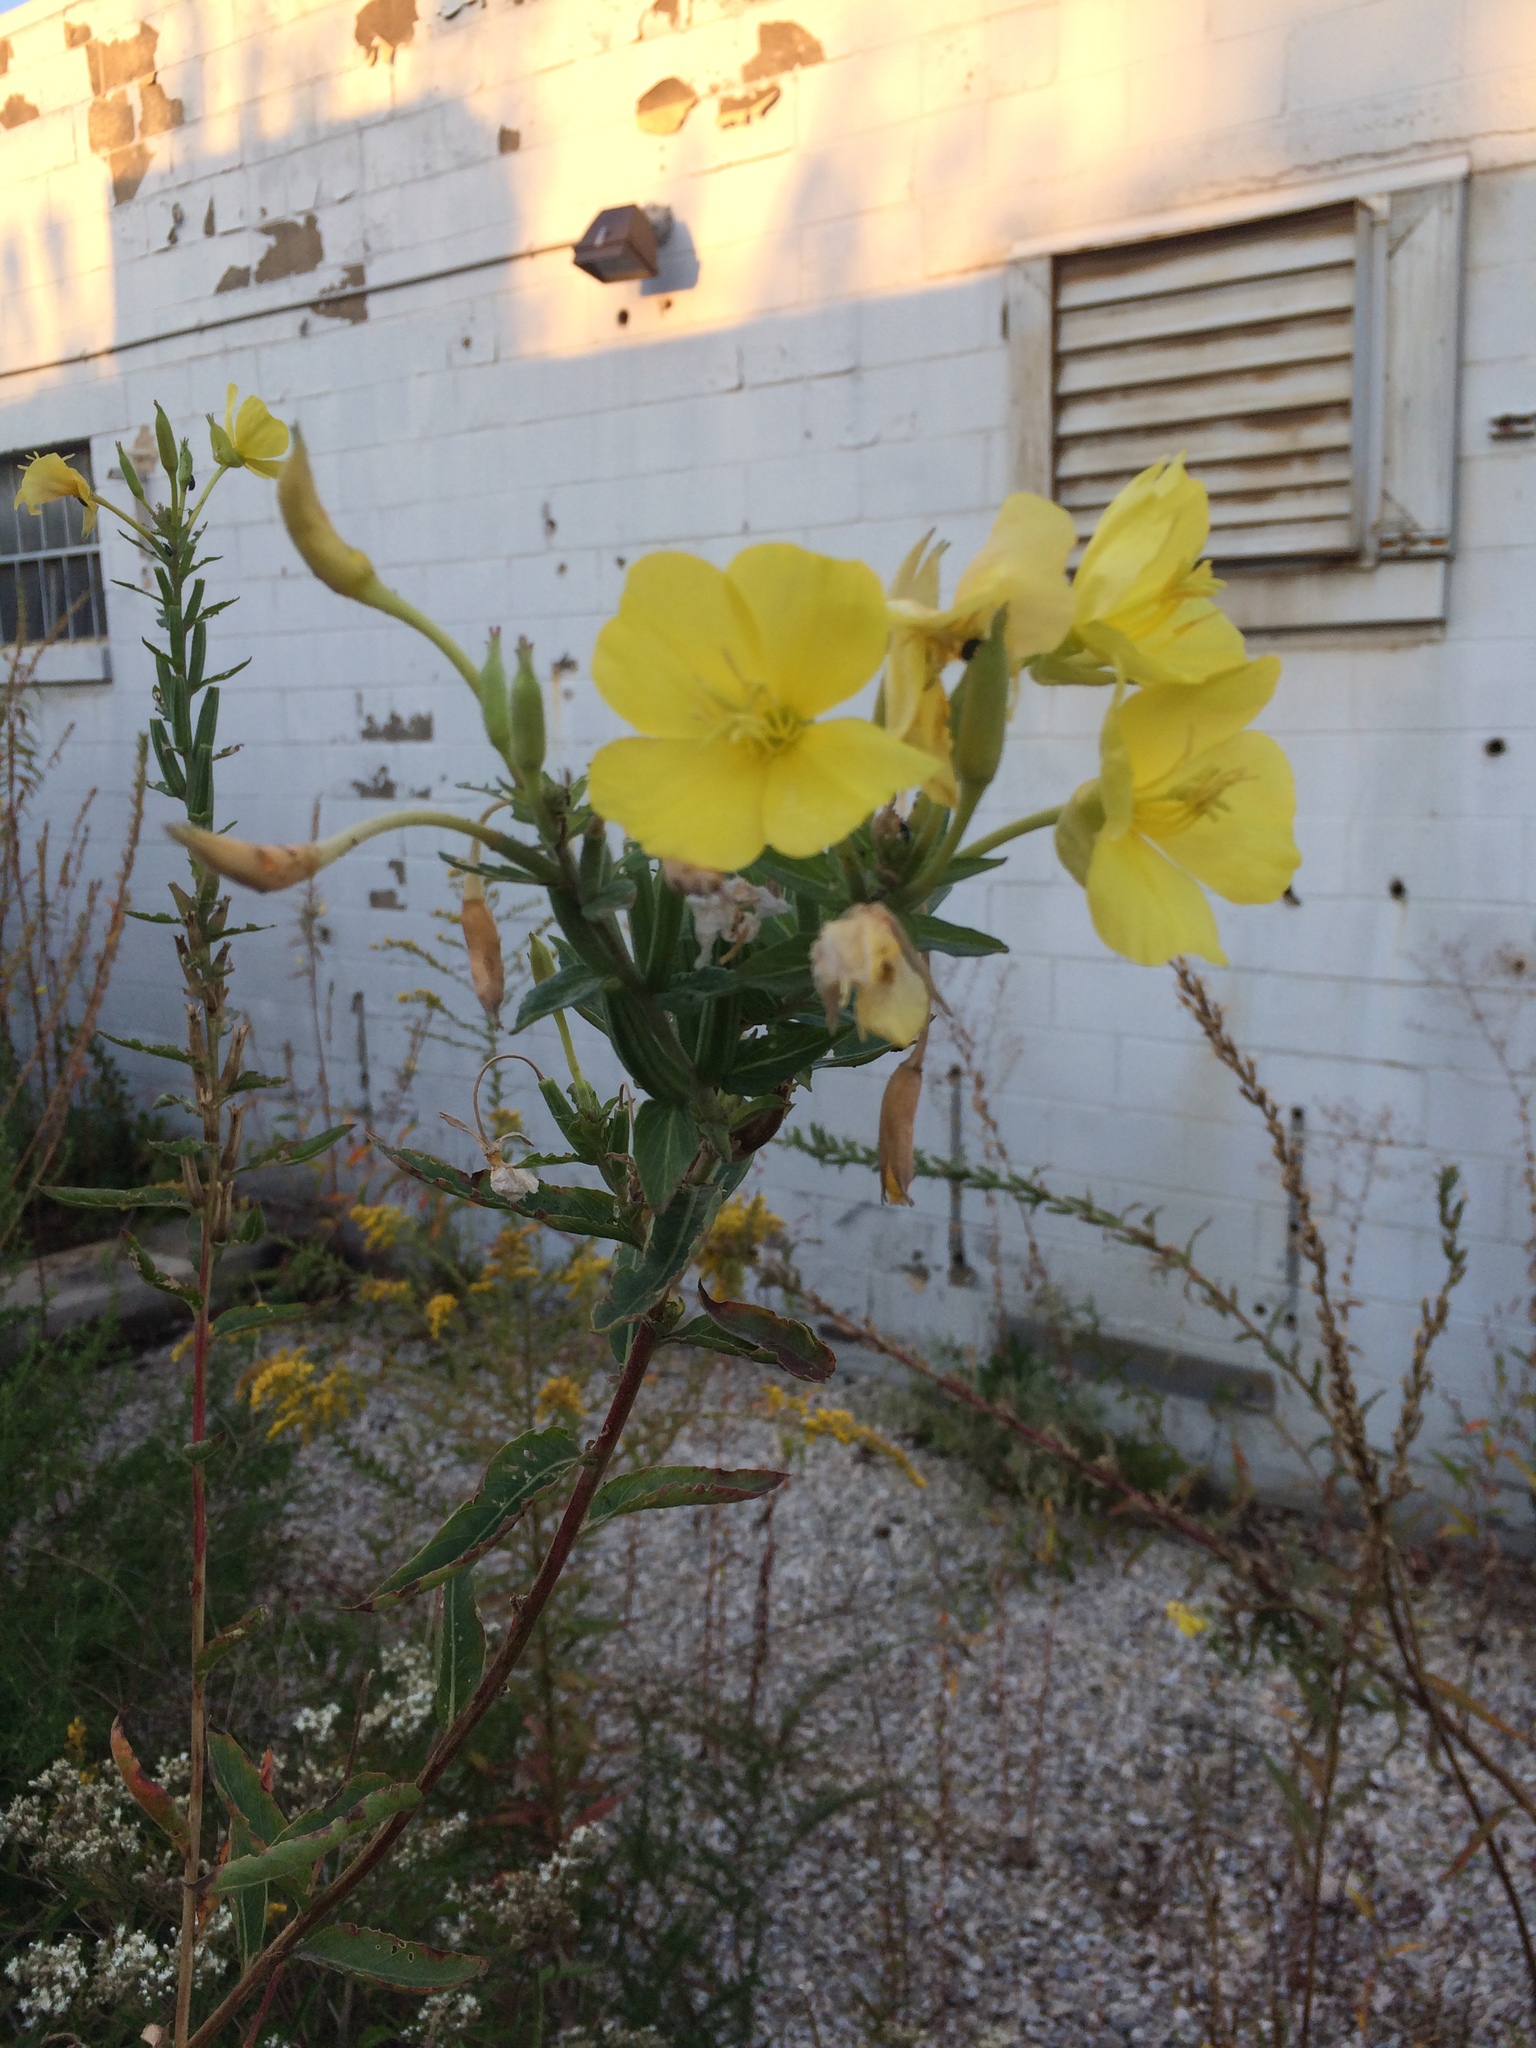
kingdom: Plantae
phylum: Tracheophyta
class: Magnoliopsida
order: Myrtales
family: Onagraceae
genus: Oenothera
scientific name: Oenothera biennis
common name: Common evening-primrose
